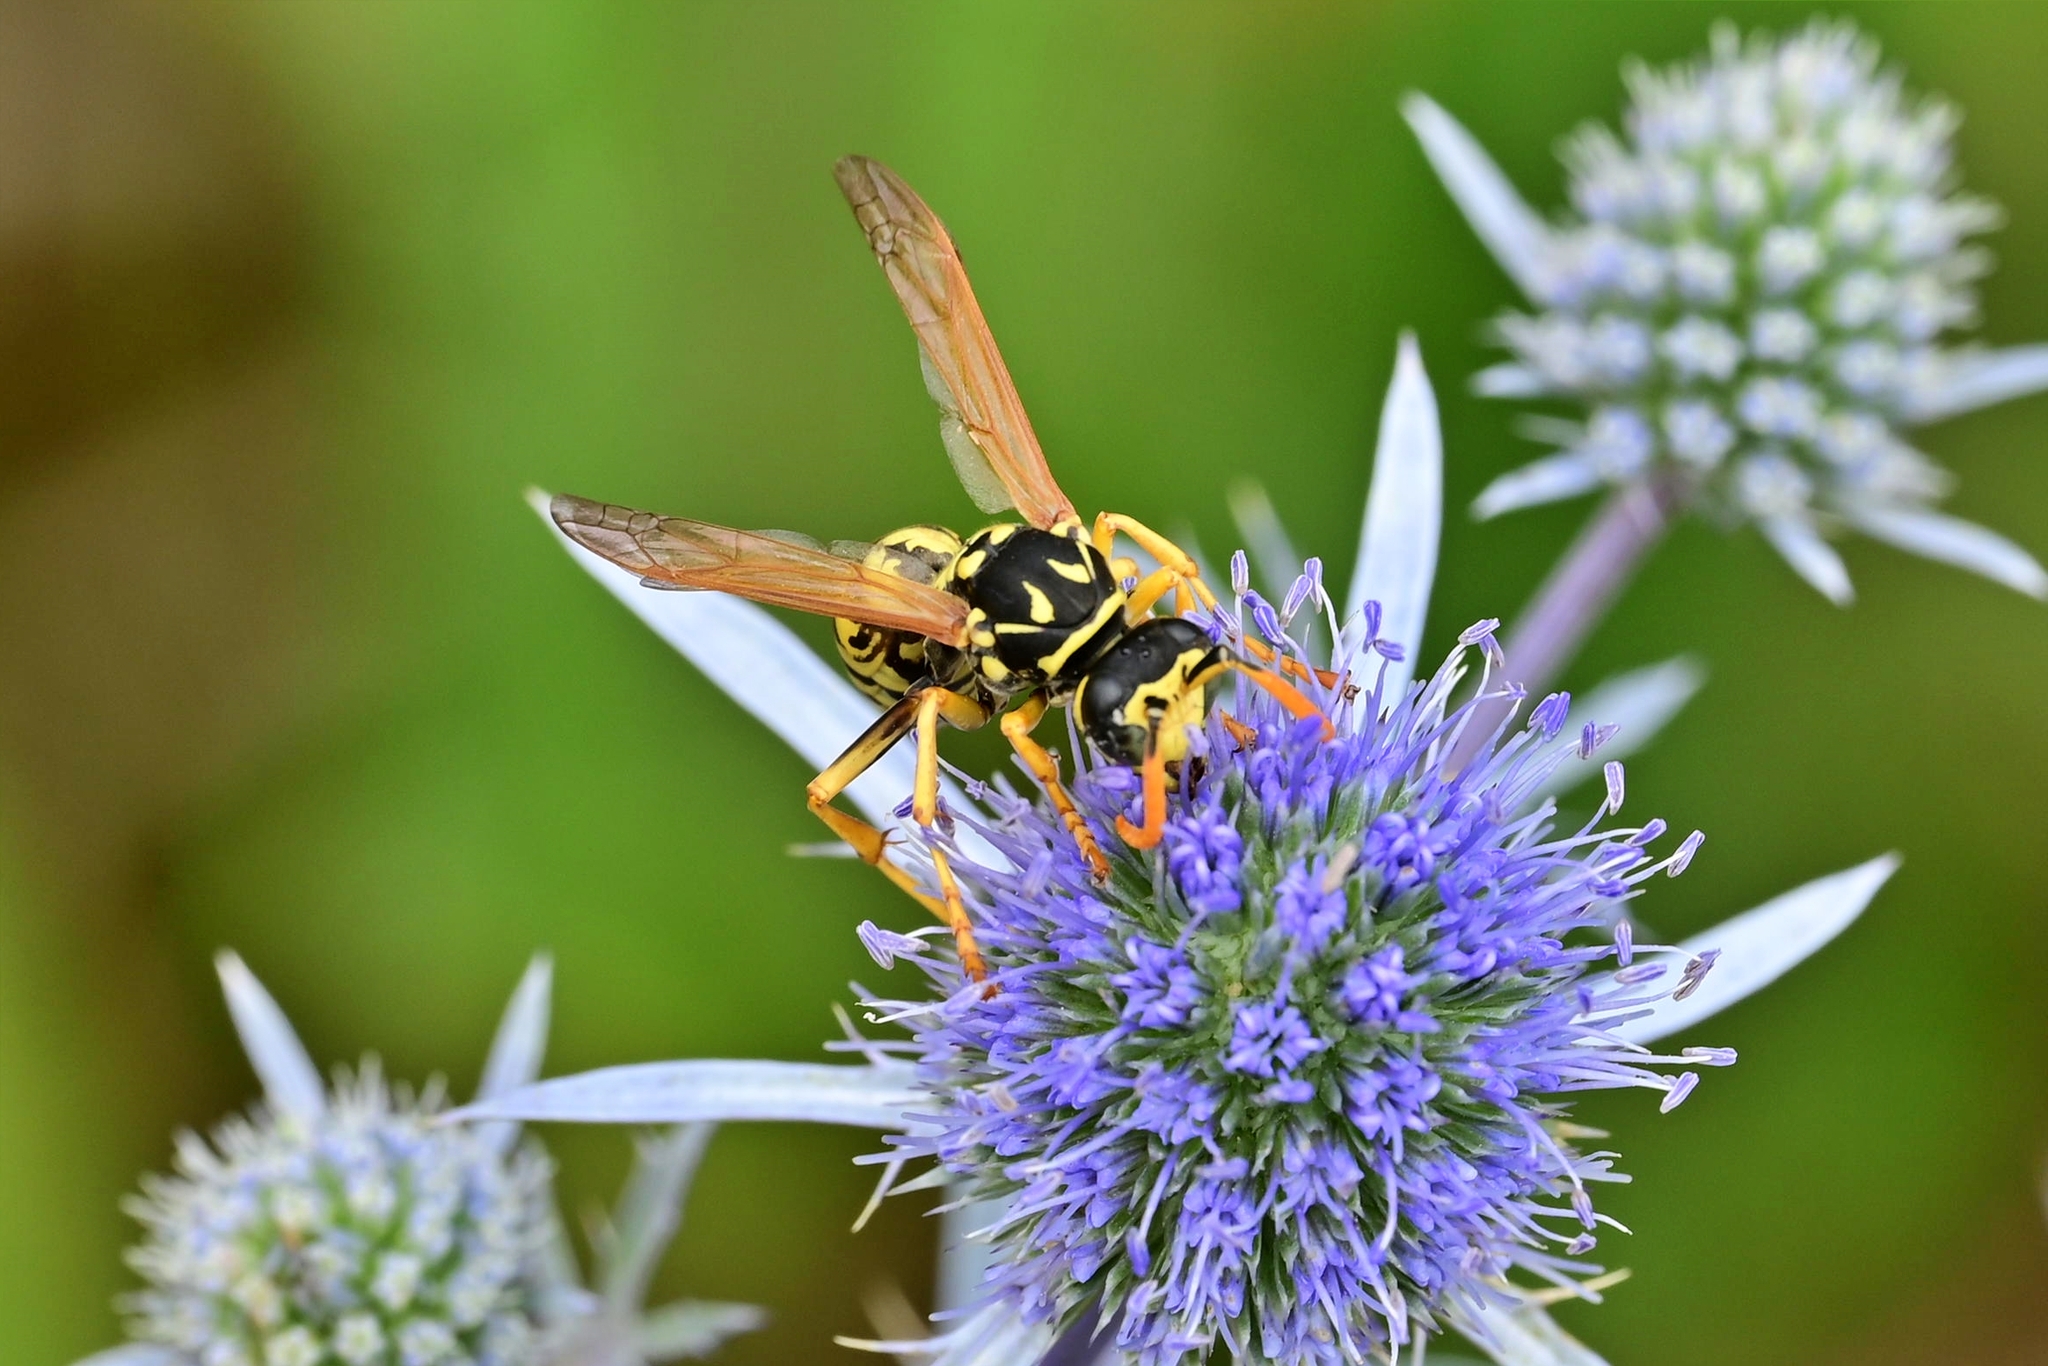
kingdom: Animalia
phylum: Arthropoda
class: Insecta
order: Hymenoptera
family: Eumenidae
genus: Polistes
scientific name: Polistes dominula
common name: Paper wasp
